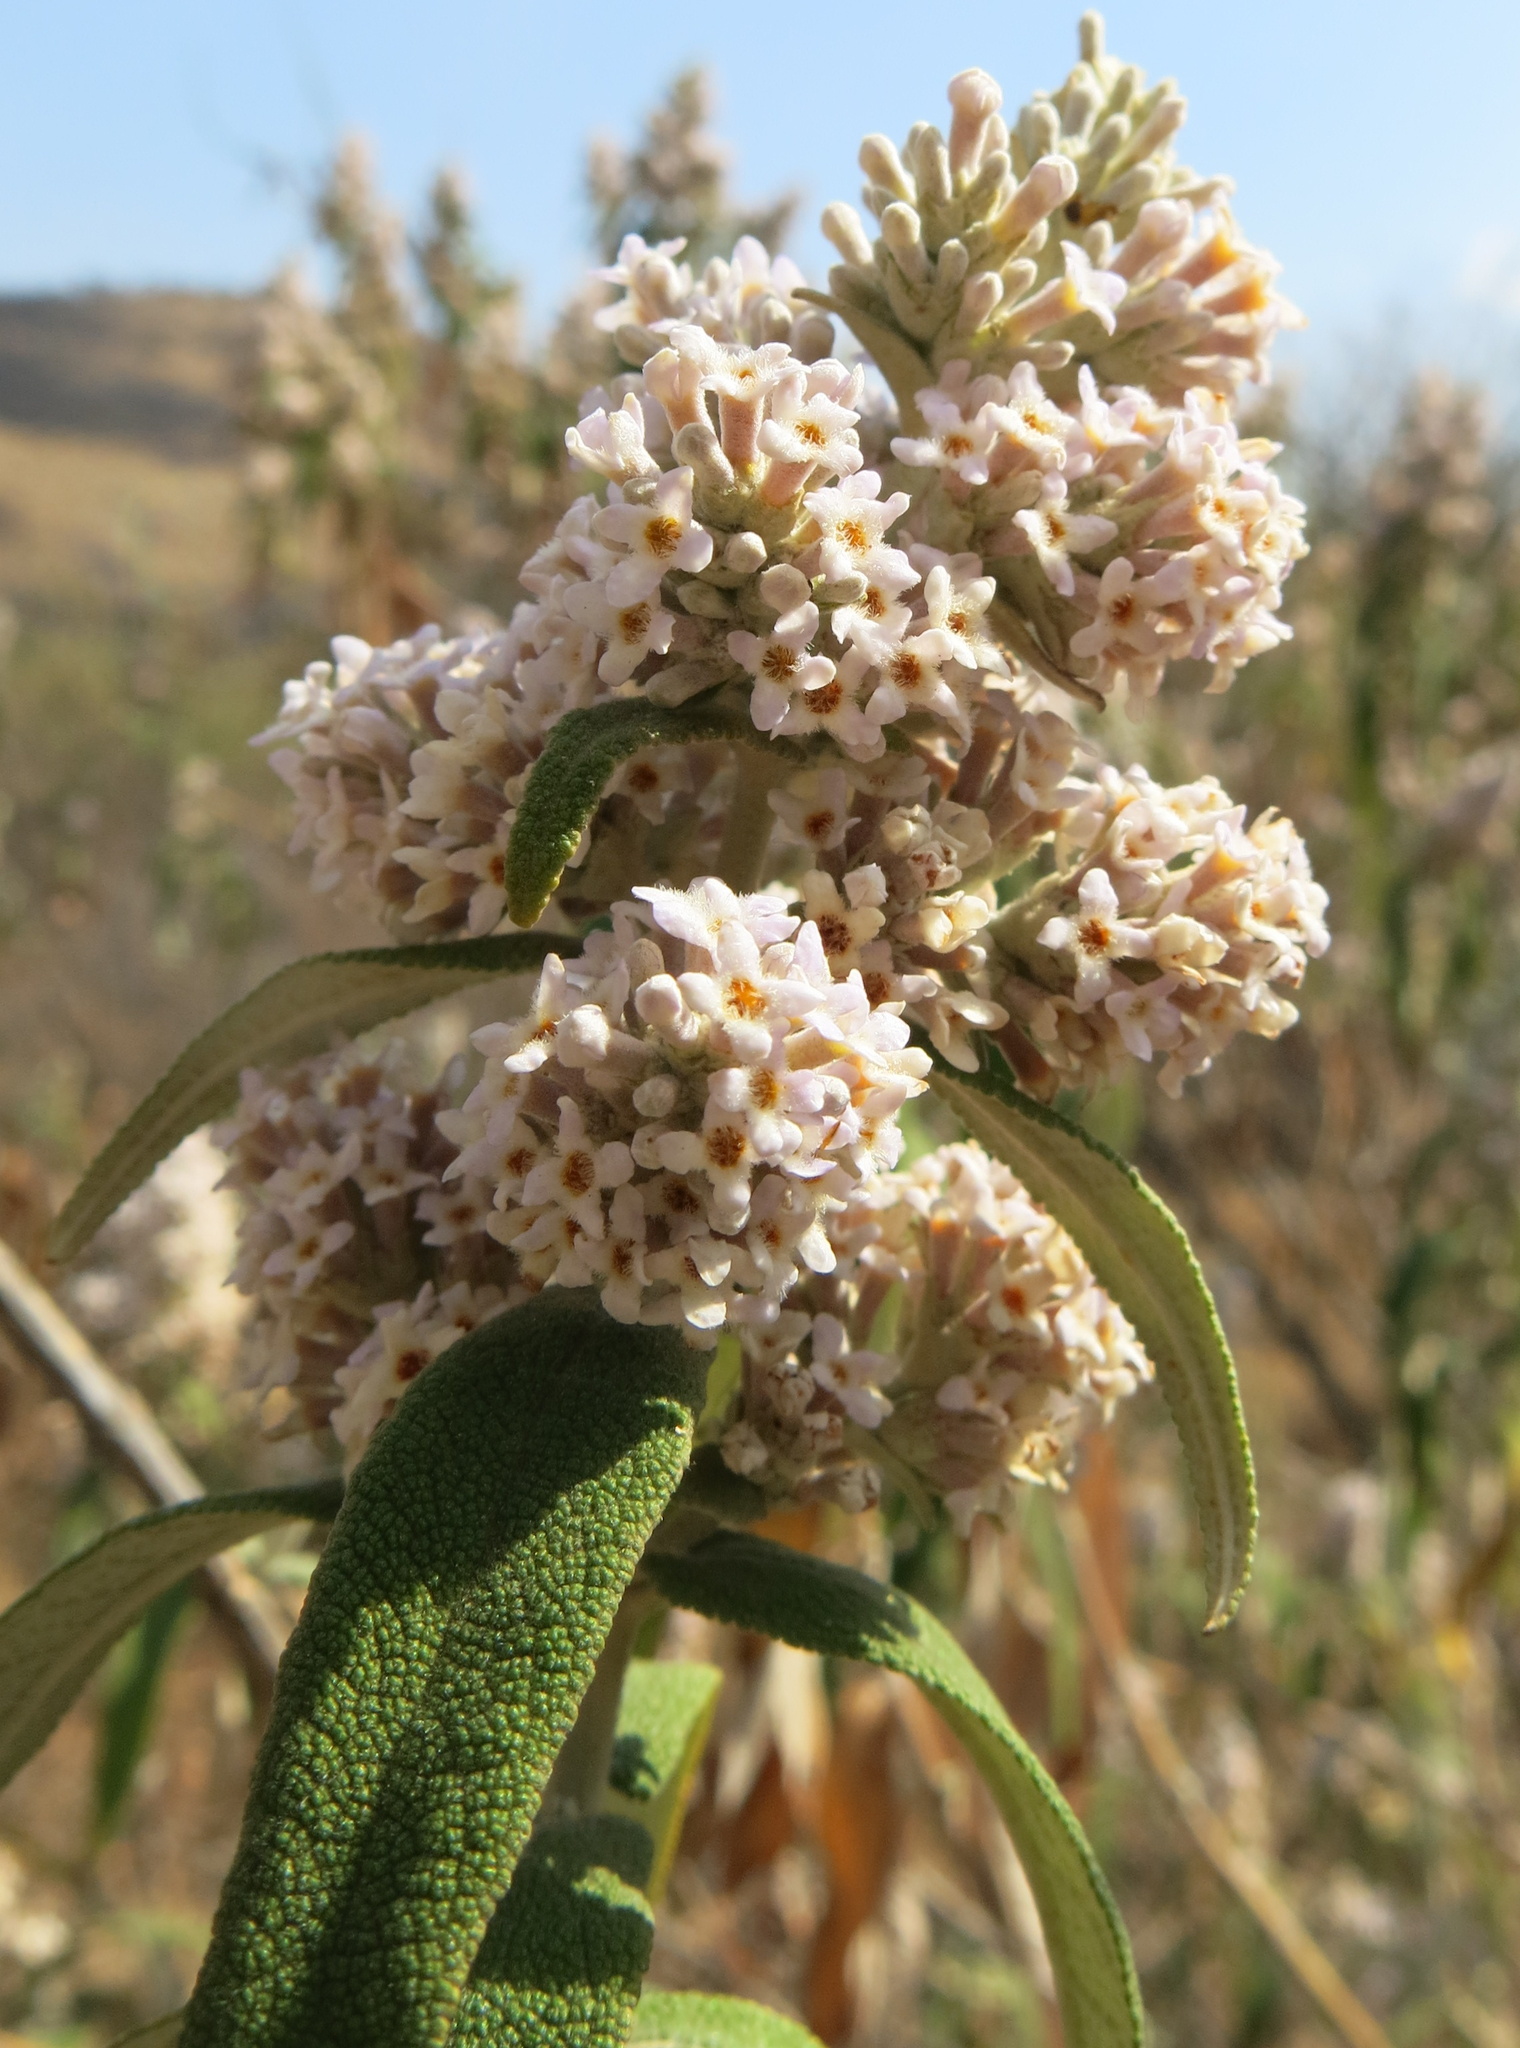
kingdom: Plantae
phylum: Tracheophyta
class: Magnoliopsida
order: Lamiales
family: Scrophulariaceae
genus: Buddleja
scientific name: Buddleja salviifolia
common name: Sagewood
